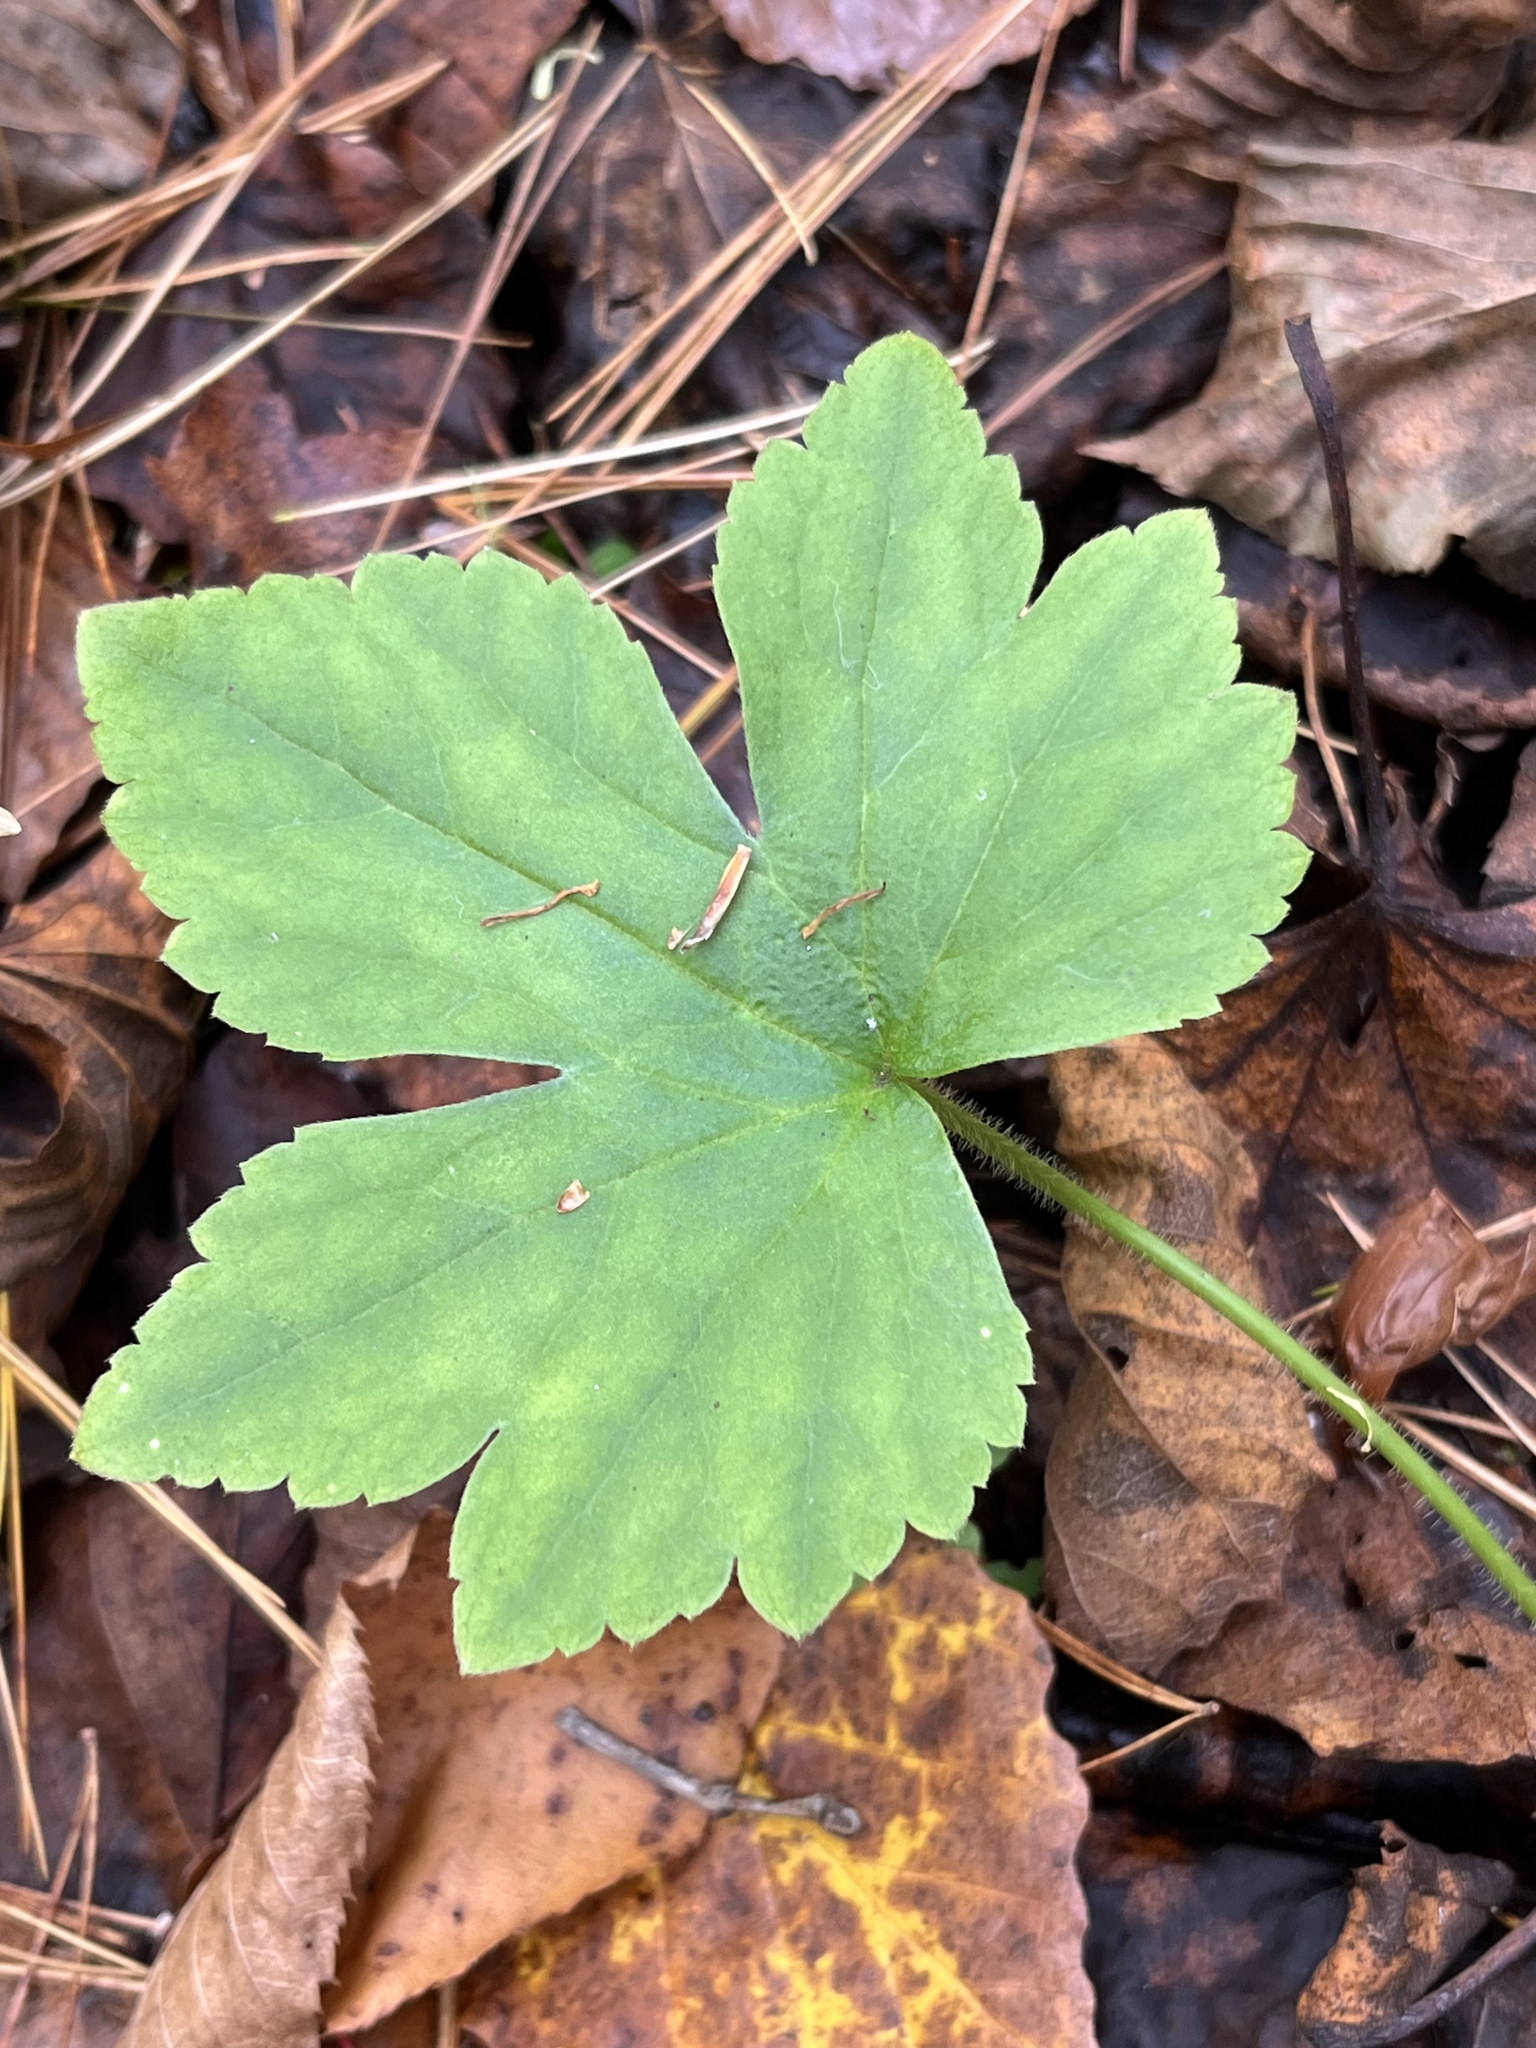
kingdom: Plantae
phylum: Tracheophyta
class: Magnoliopsida
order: Ranunculales
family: Ranunculaceae
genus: Ranunculus
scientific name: Ranunculus recurvatus
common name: Blisterwort
